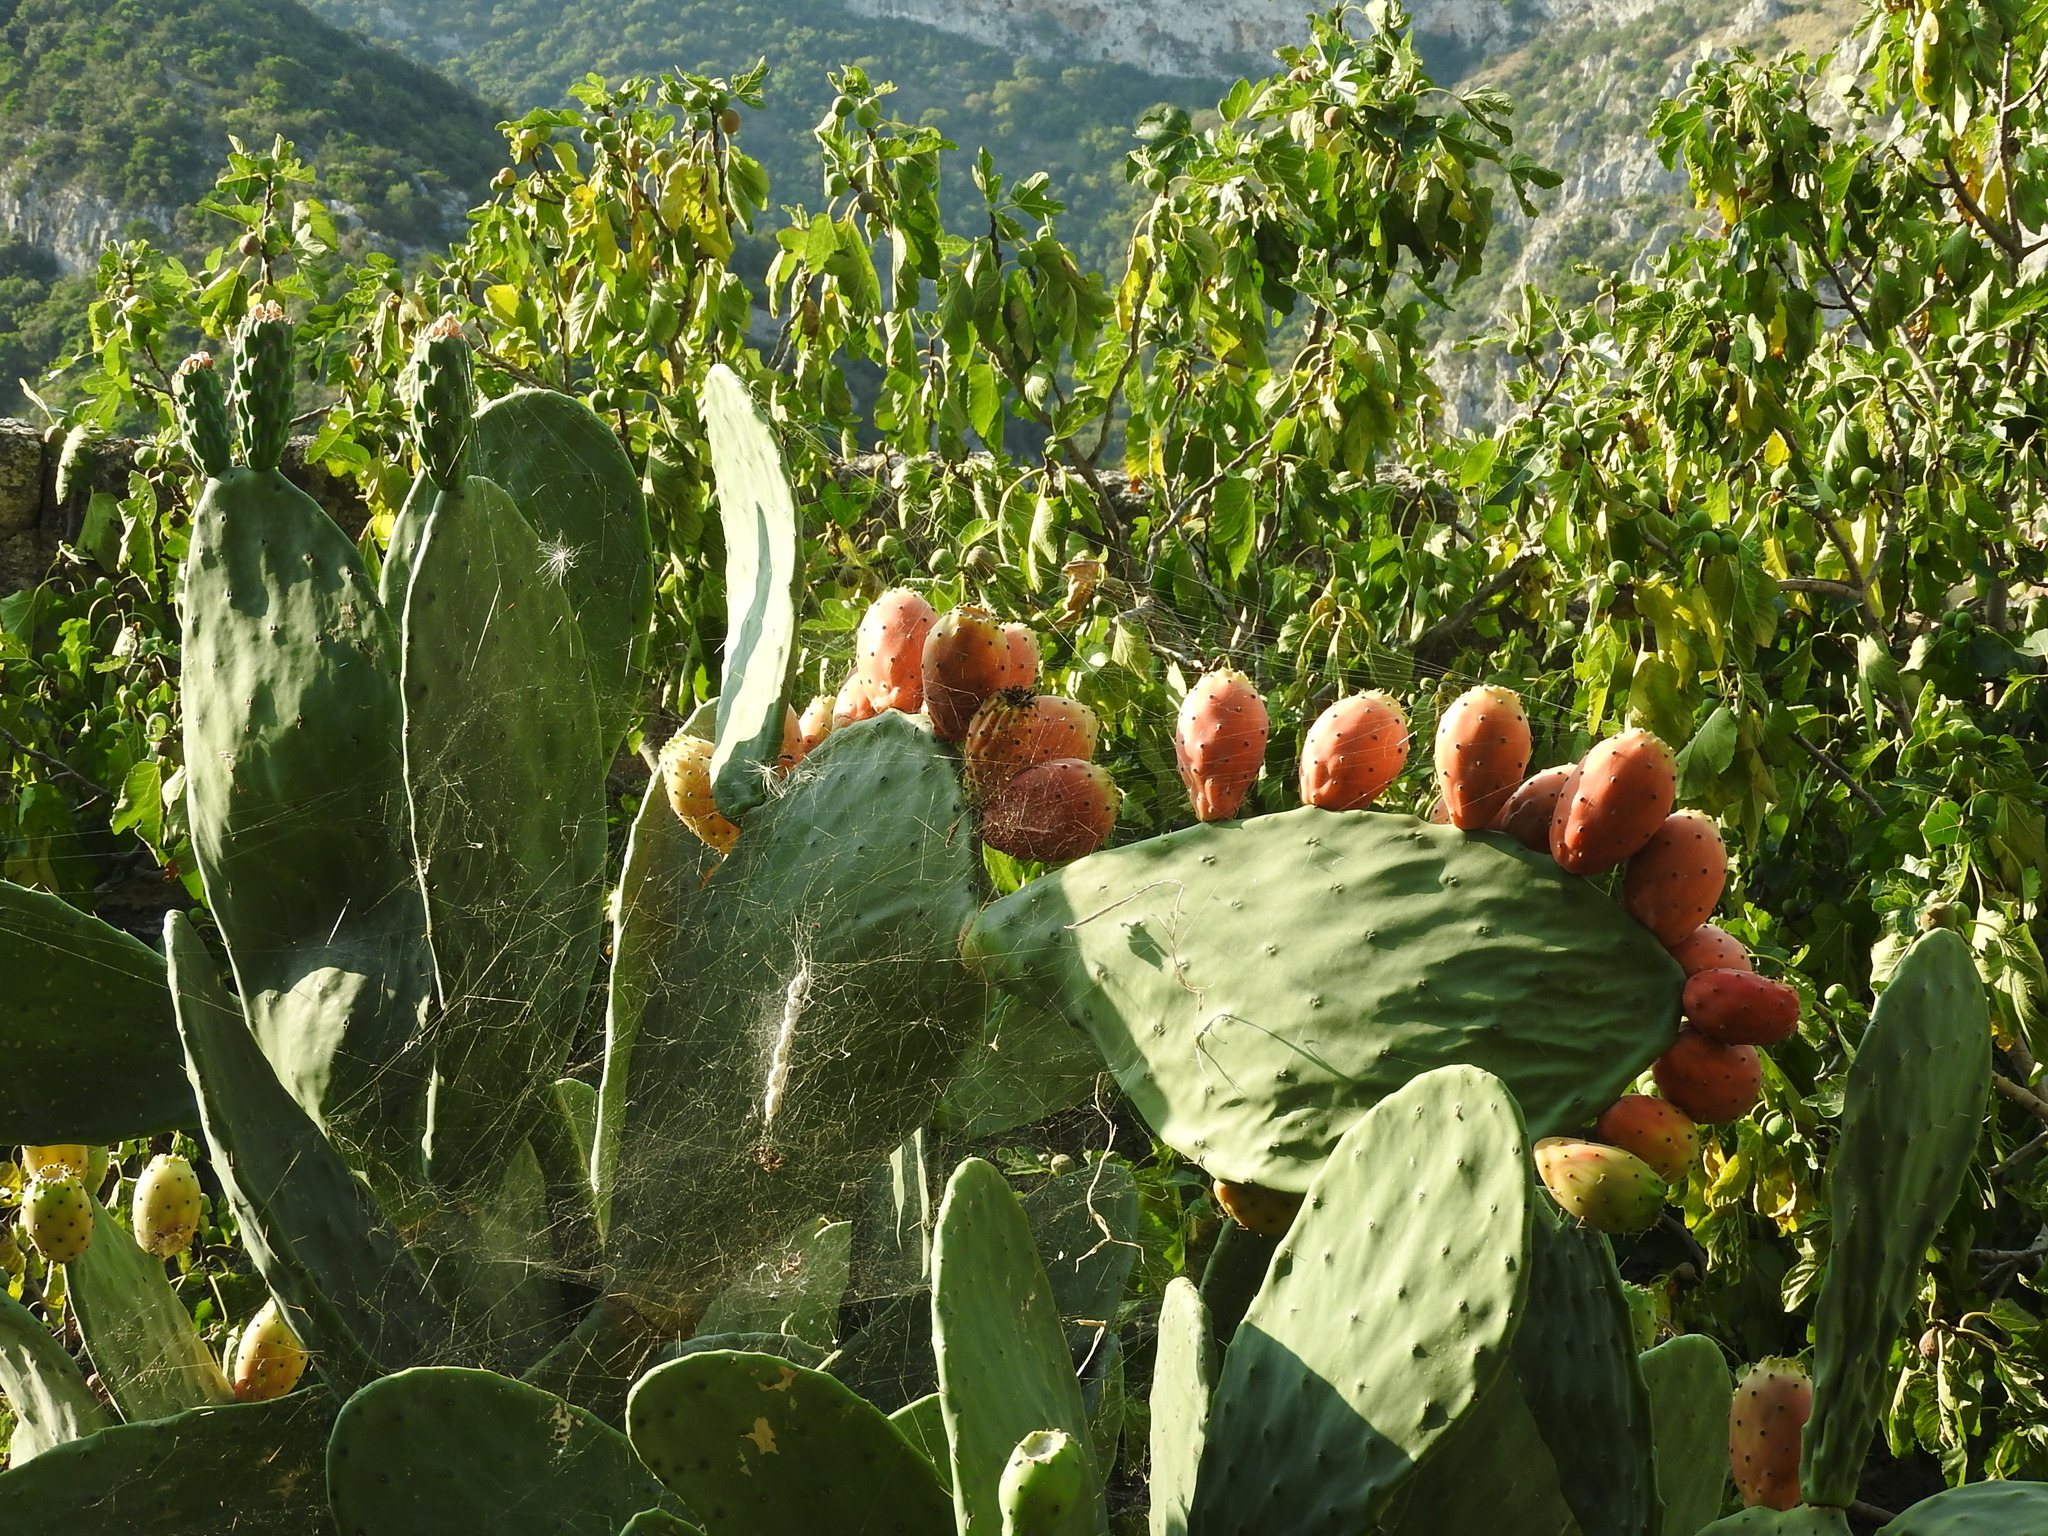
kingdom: Plantae
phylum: Tracheophyta
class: Magnoliopsida
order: Caryophyllales
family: Cactaceae
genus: Opuntia
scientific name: Opuntia ficus-indica
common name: Barbary fig
